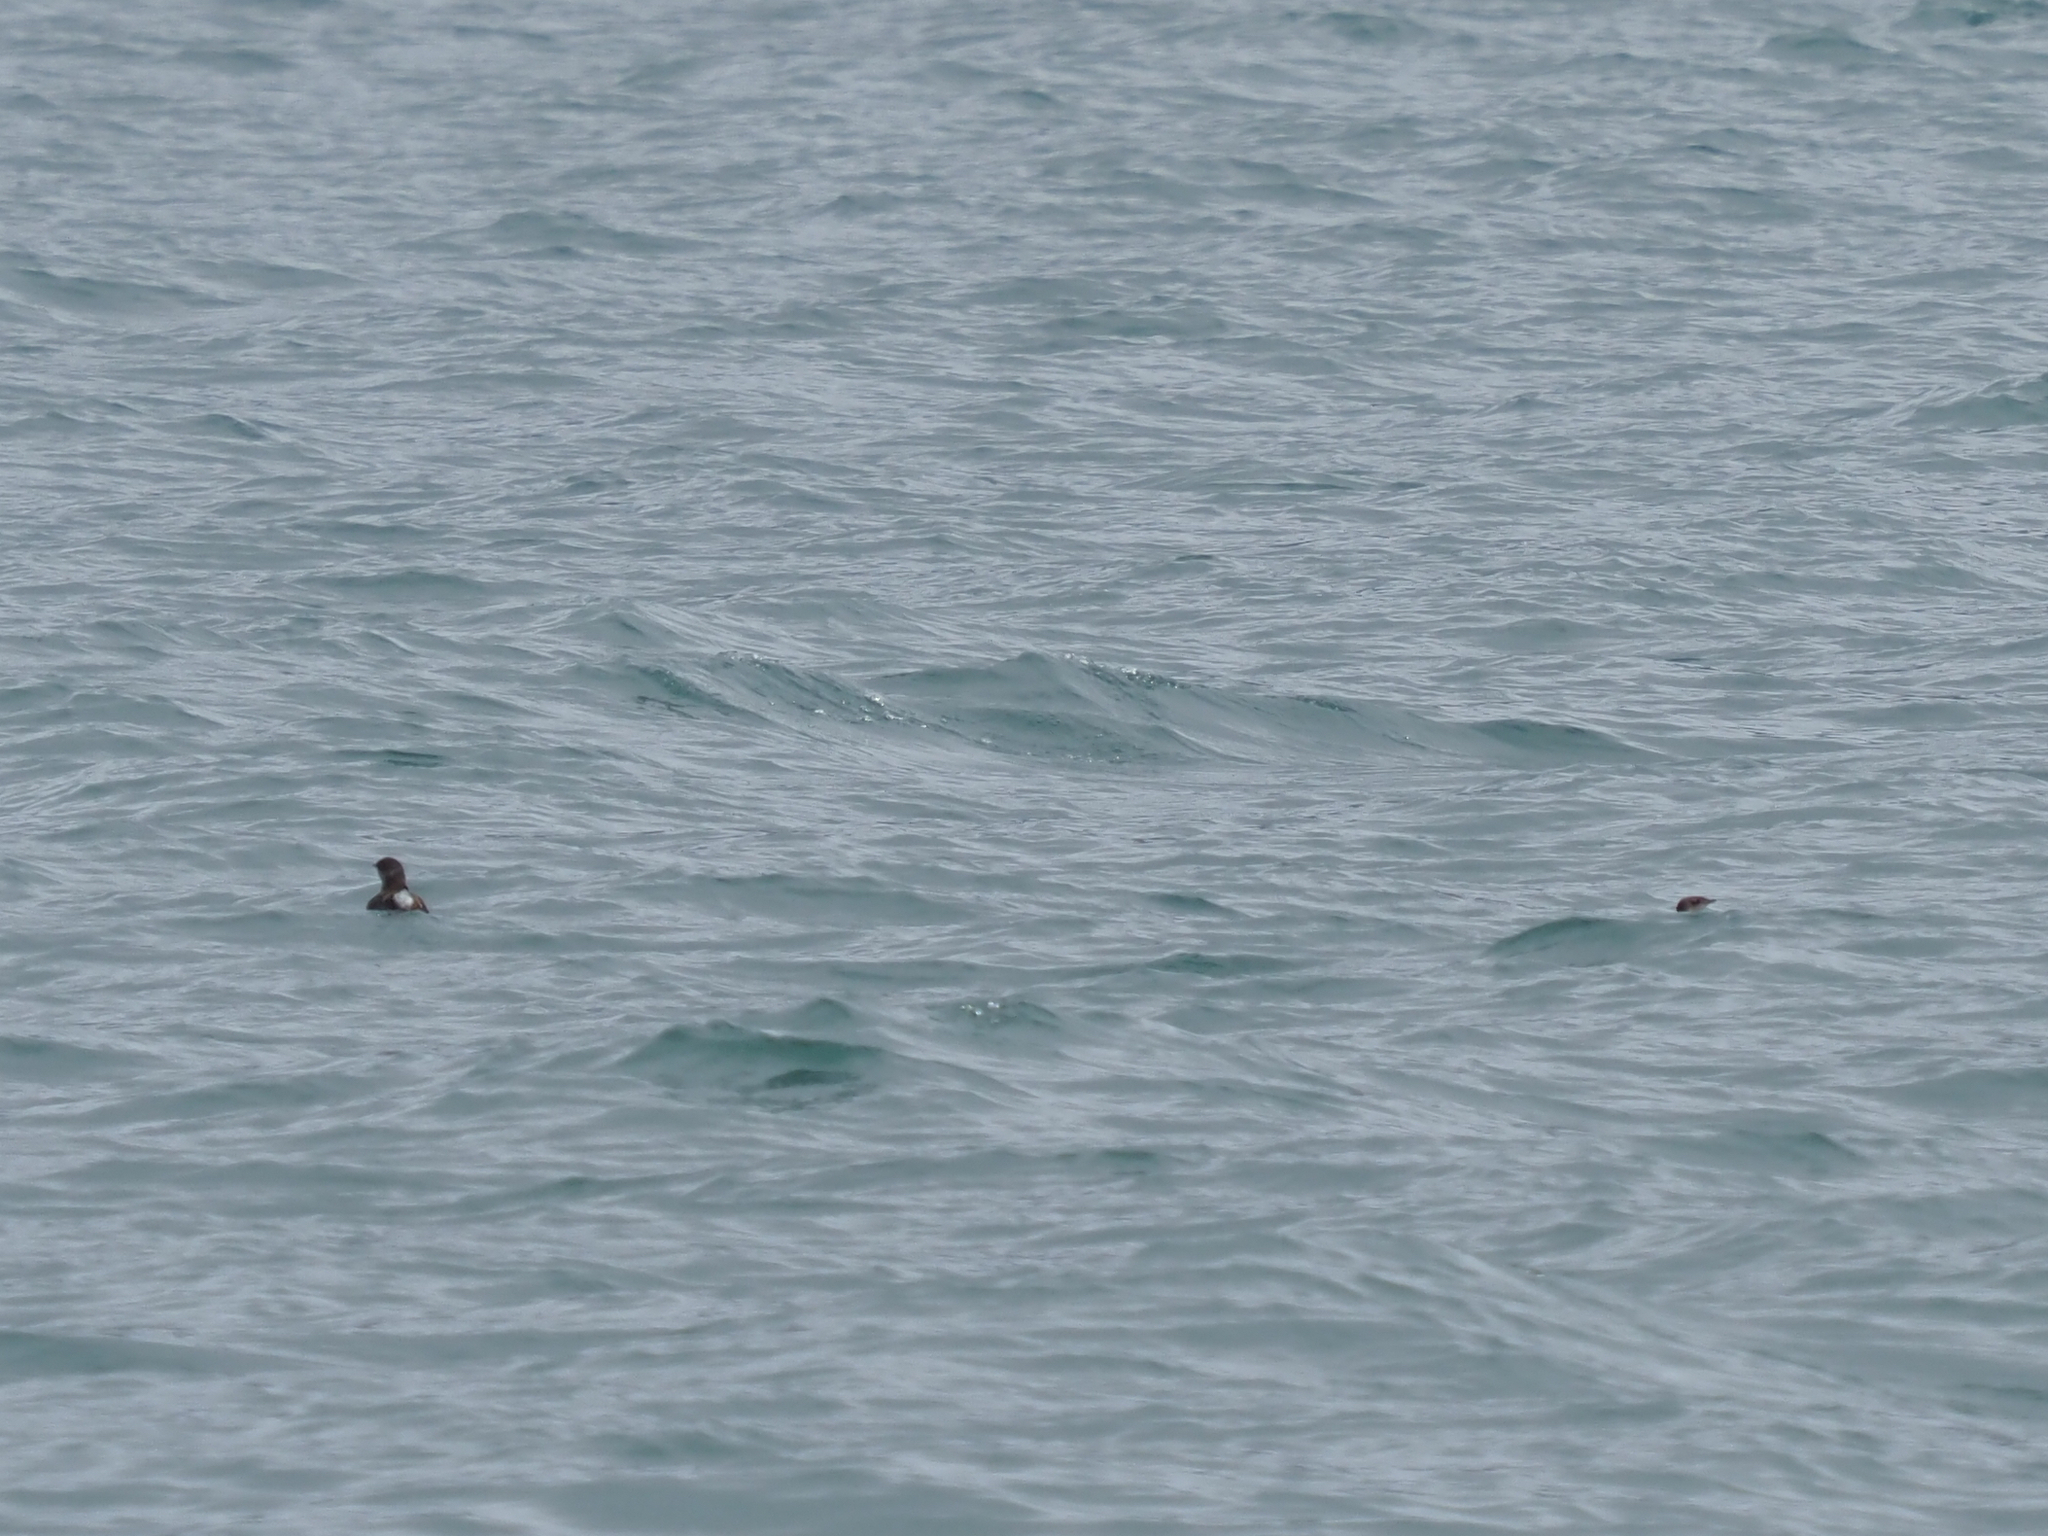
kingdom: Animalia
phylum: Chordata
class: Aves
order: Charadriiformes
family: Alcidae
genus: Brachyramphus
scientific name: Brachyramphus marmoratus
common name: Marbled murrelet
